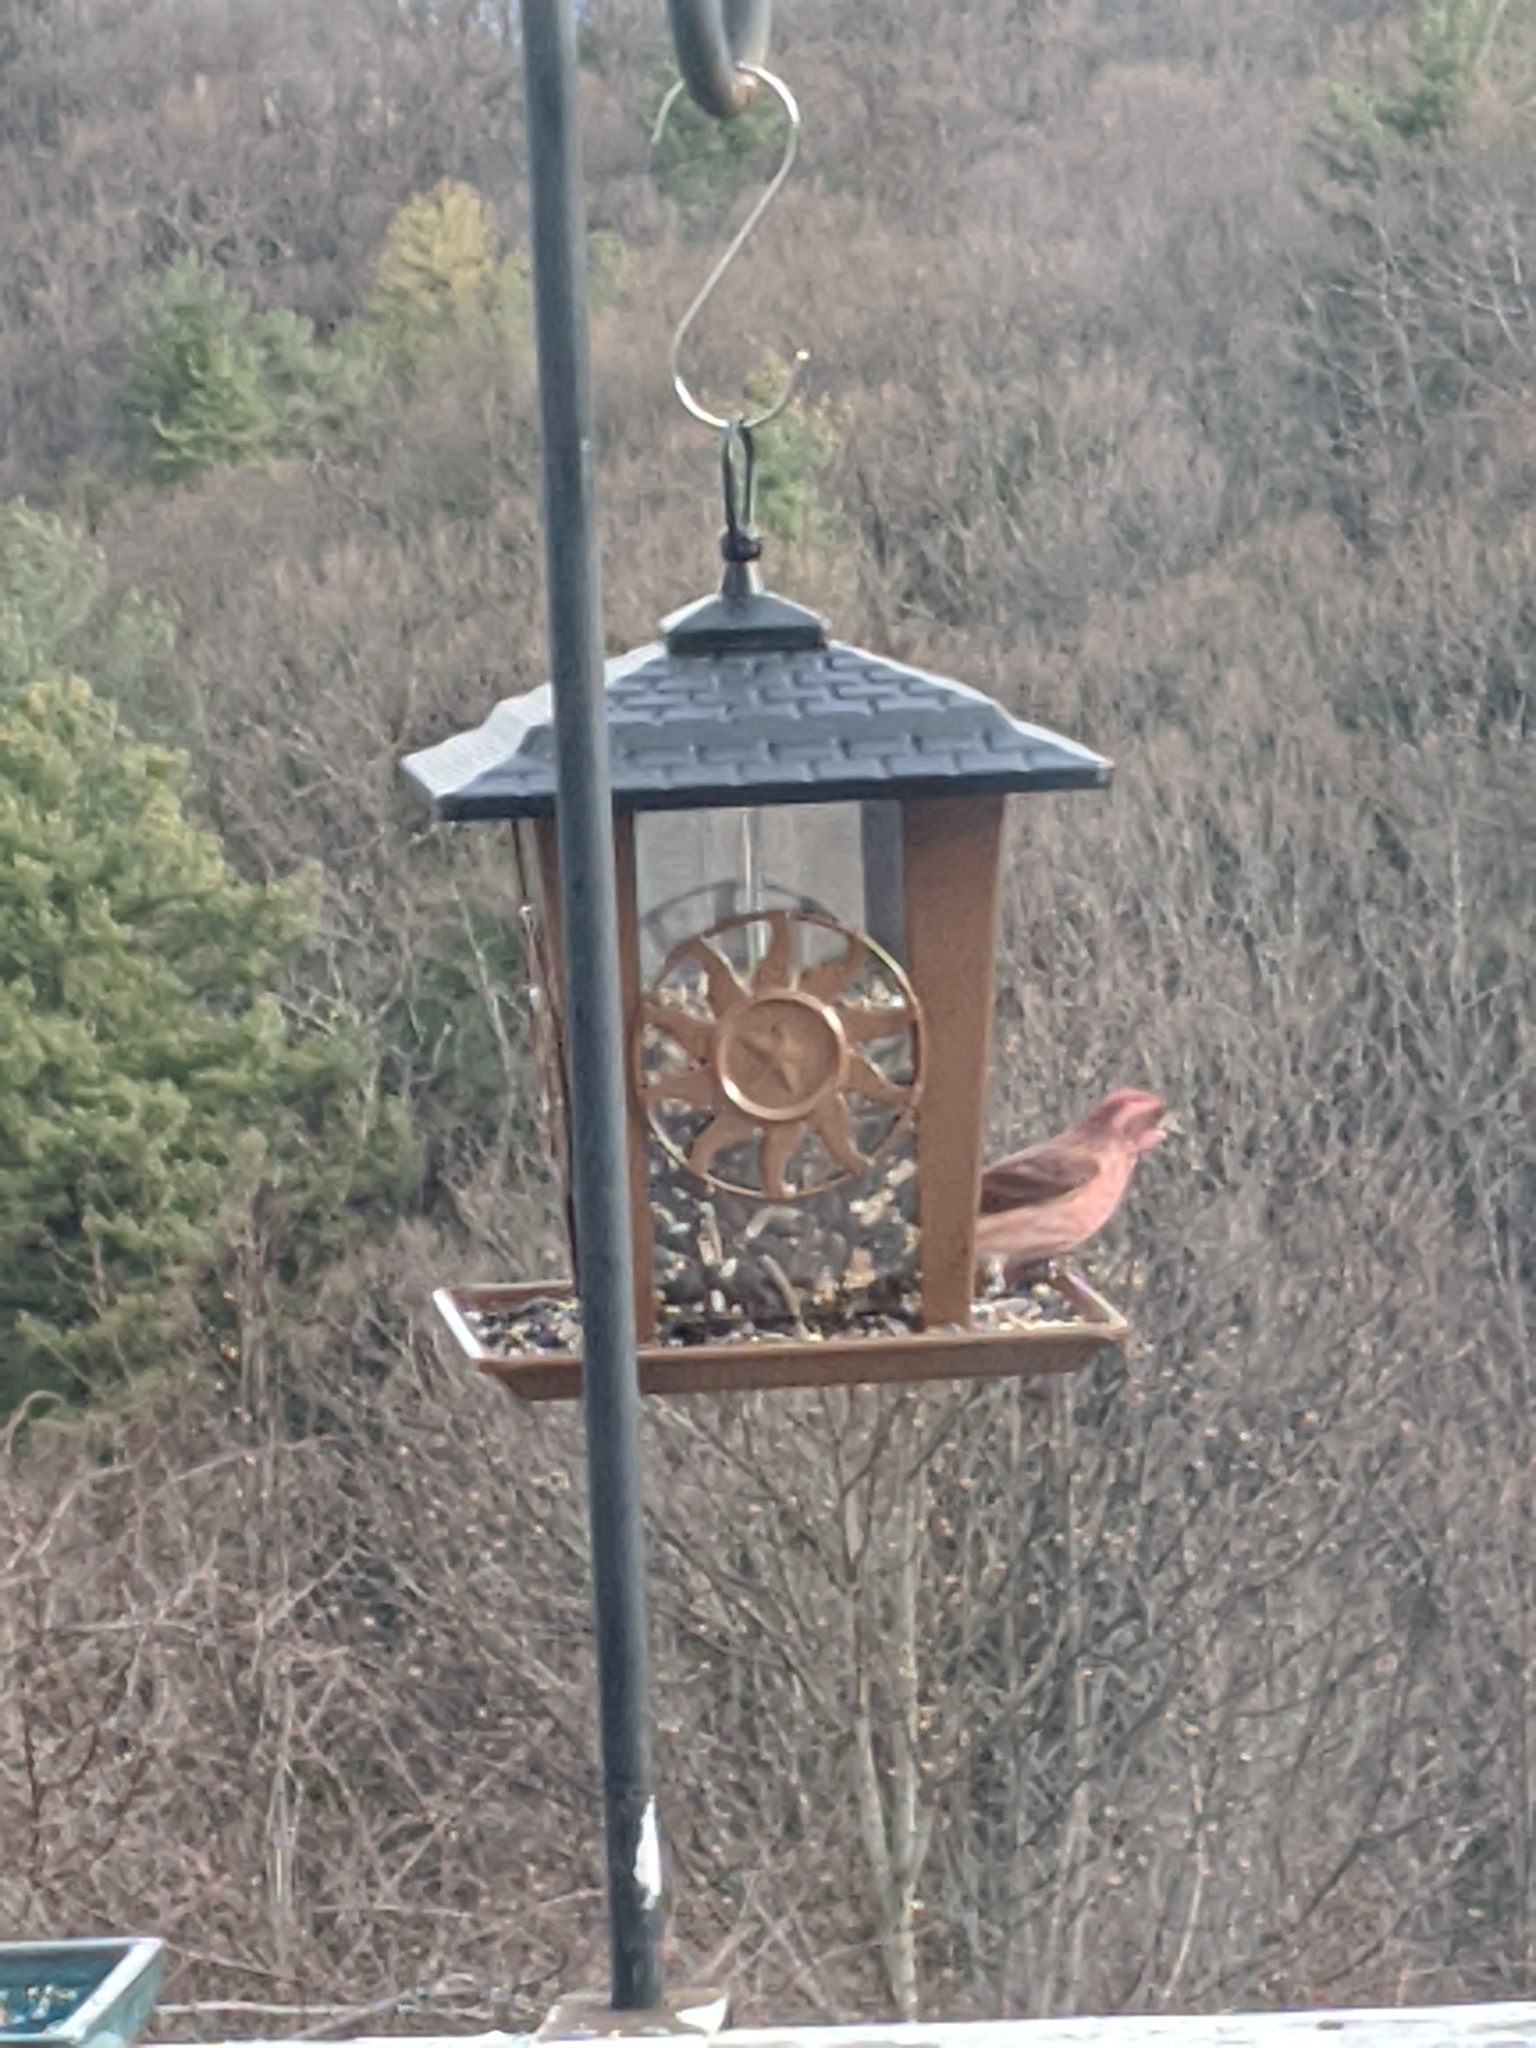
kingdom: Animalia
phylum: Chordata
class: Aves
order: Passeriformes
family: Fringillidae
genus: Haemorhous
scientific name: Haemorhous purpureus
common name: Purple finch
